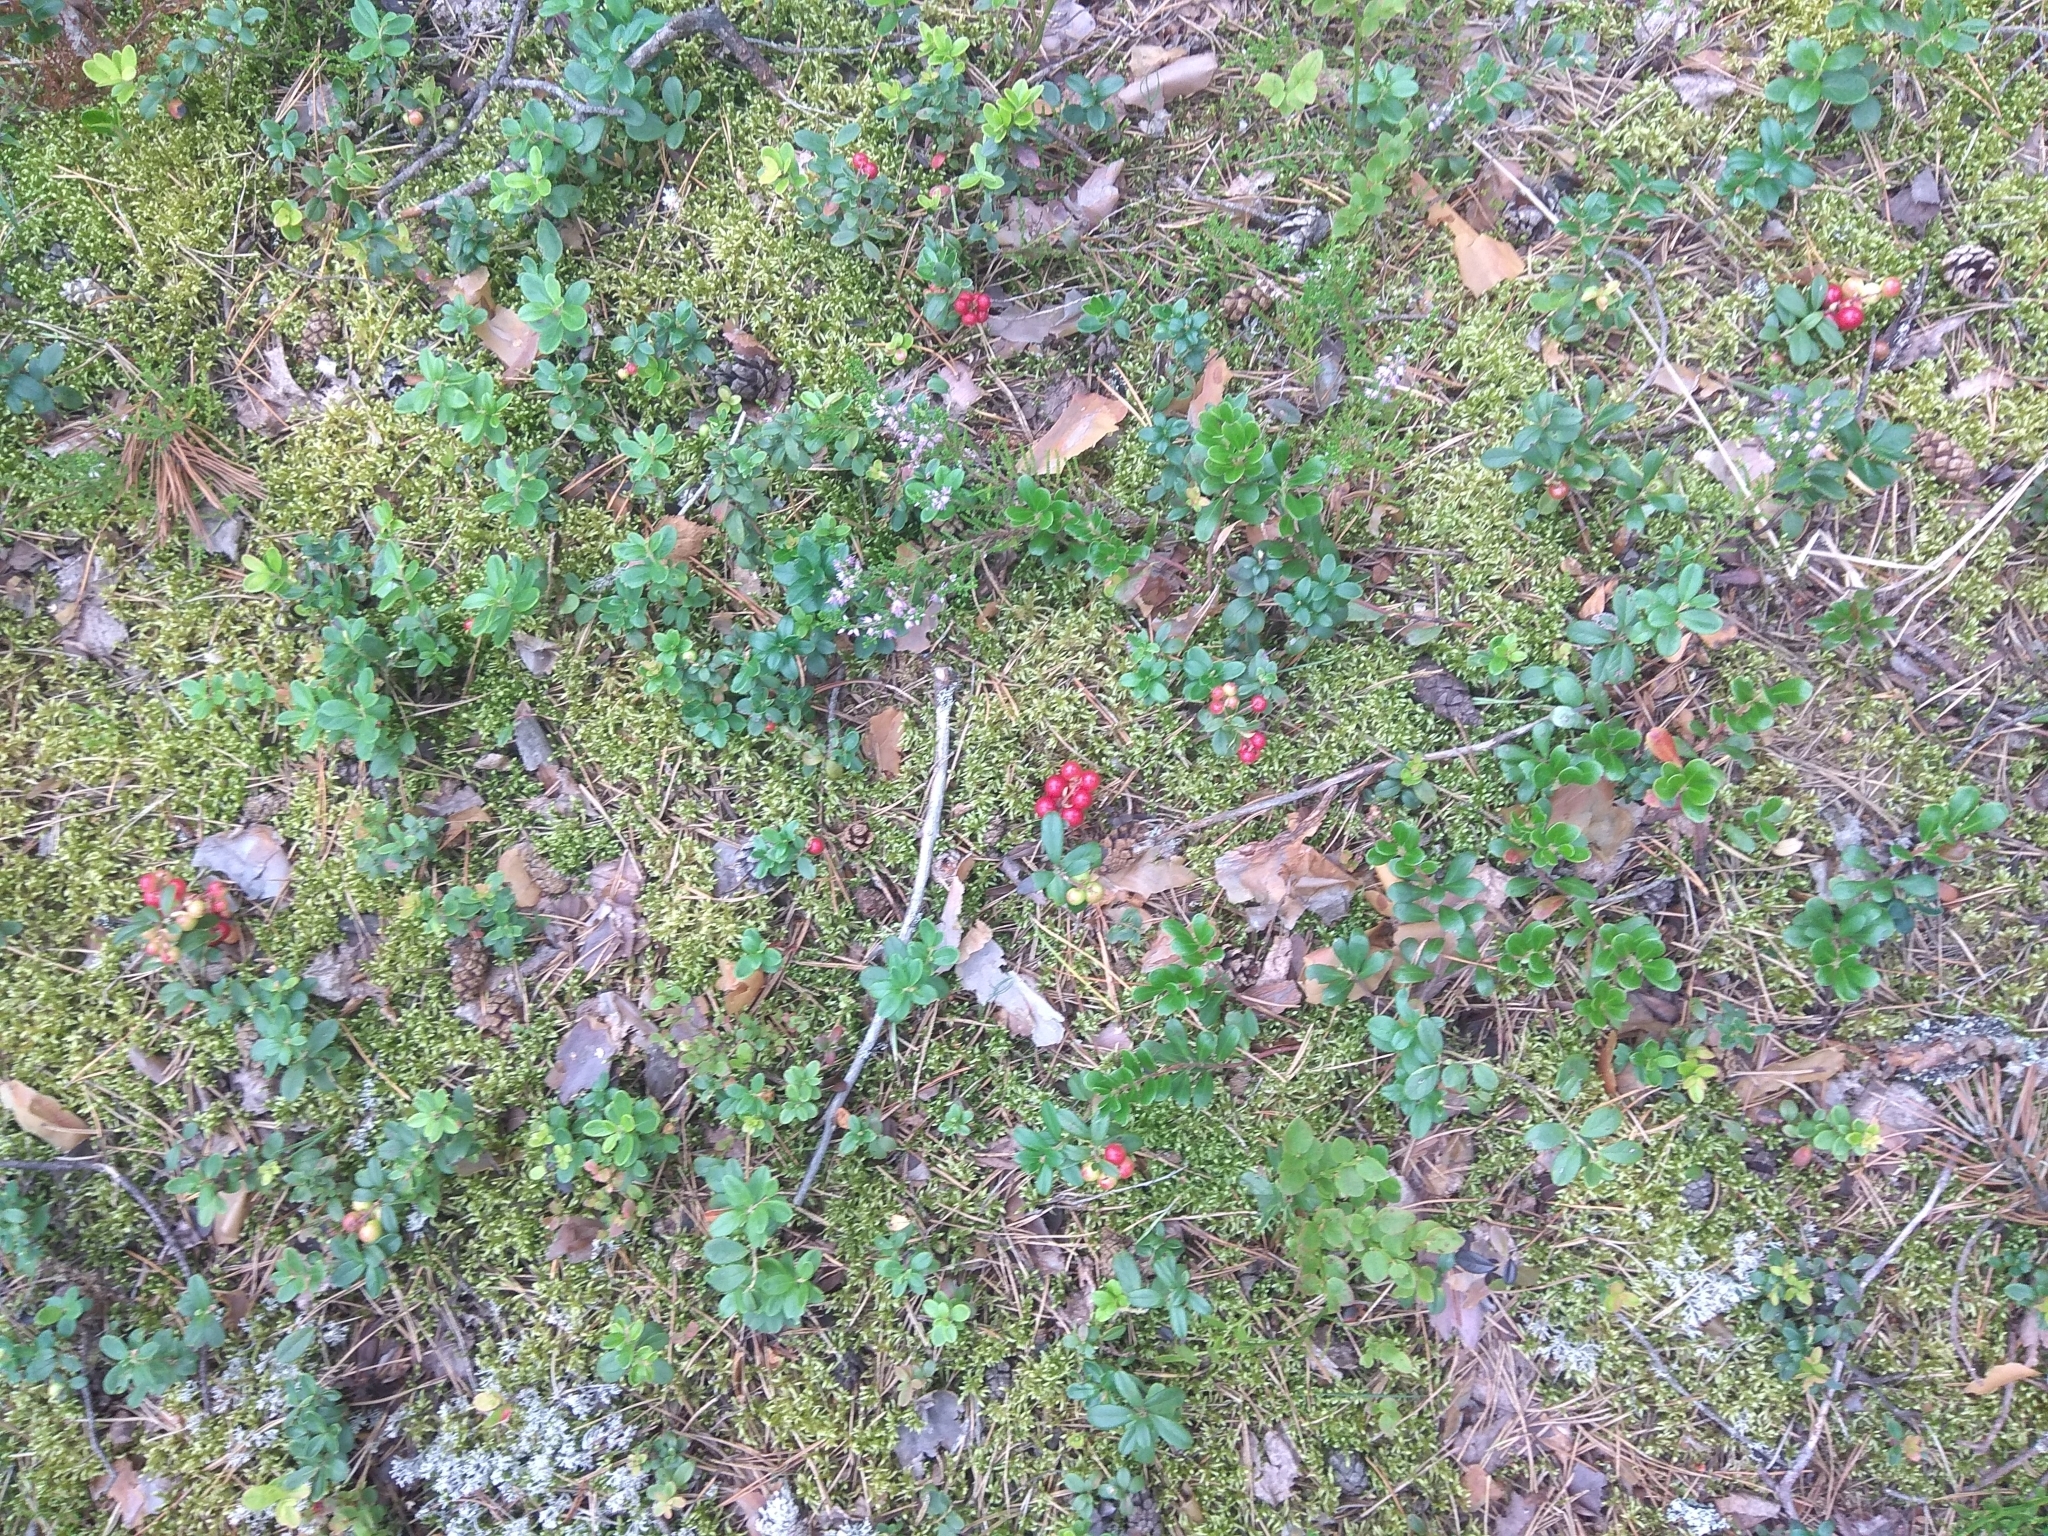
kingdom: Plantae
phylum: Tracheophyta
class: Magnoliopsida
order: Ericales
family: Ericaceae
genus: Vaccinium
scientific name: Vaccinium vitis-idaea
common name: Cowberry
